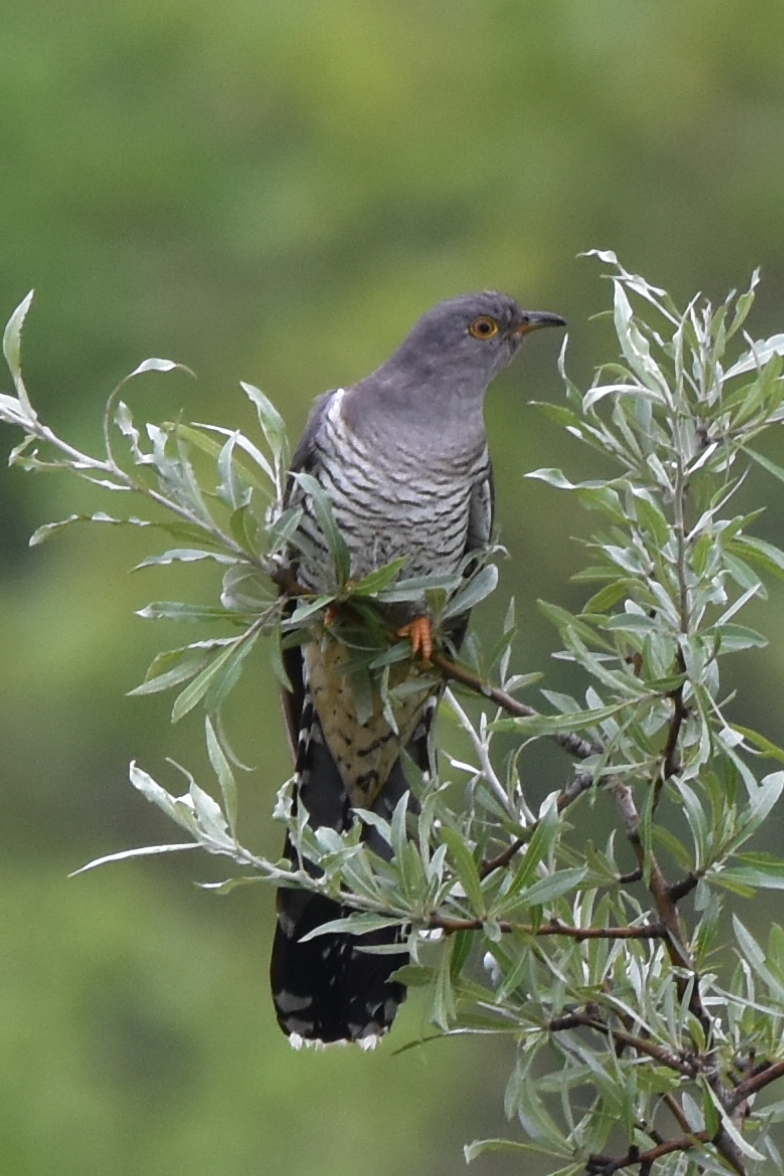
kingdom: Animalia
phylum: Chordata
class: Aves
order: Cuculiformes
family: Cuculidae
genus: Cuculus
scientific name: Cuculus canorus
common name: Common cuckoo
